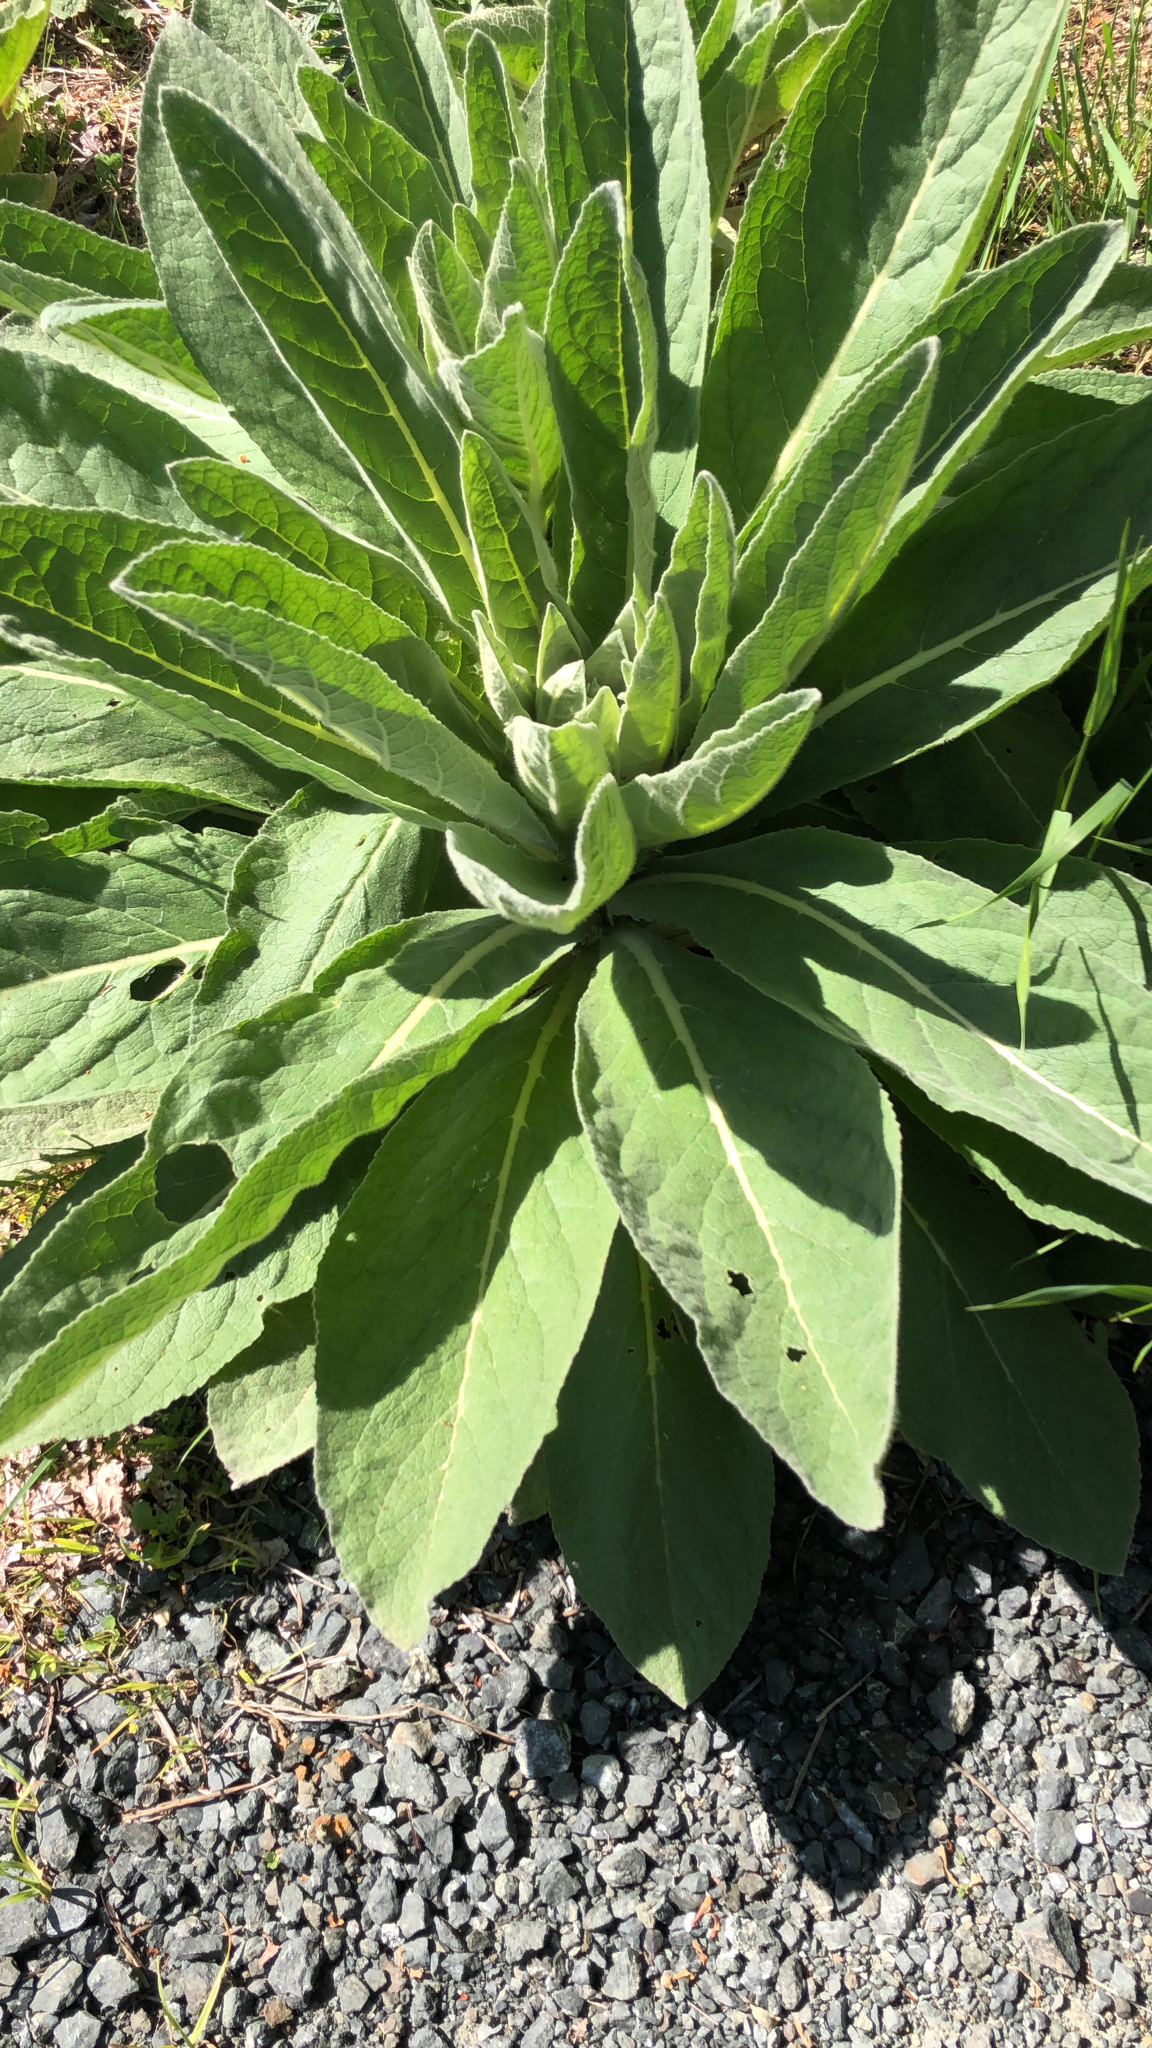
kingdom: Plantae
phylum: Tracheophyta
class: Magnoliopsida
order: Lamiales
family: Scrophulariaceae
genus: Verbascum
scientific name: Verbascum thapsus
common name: Common mullein
